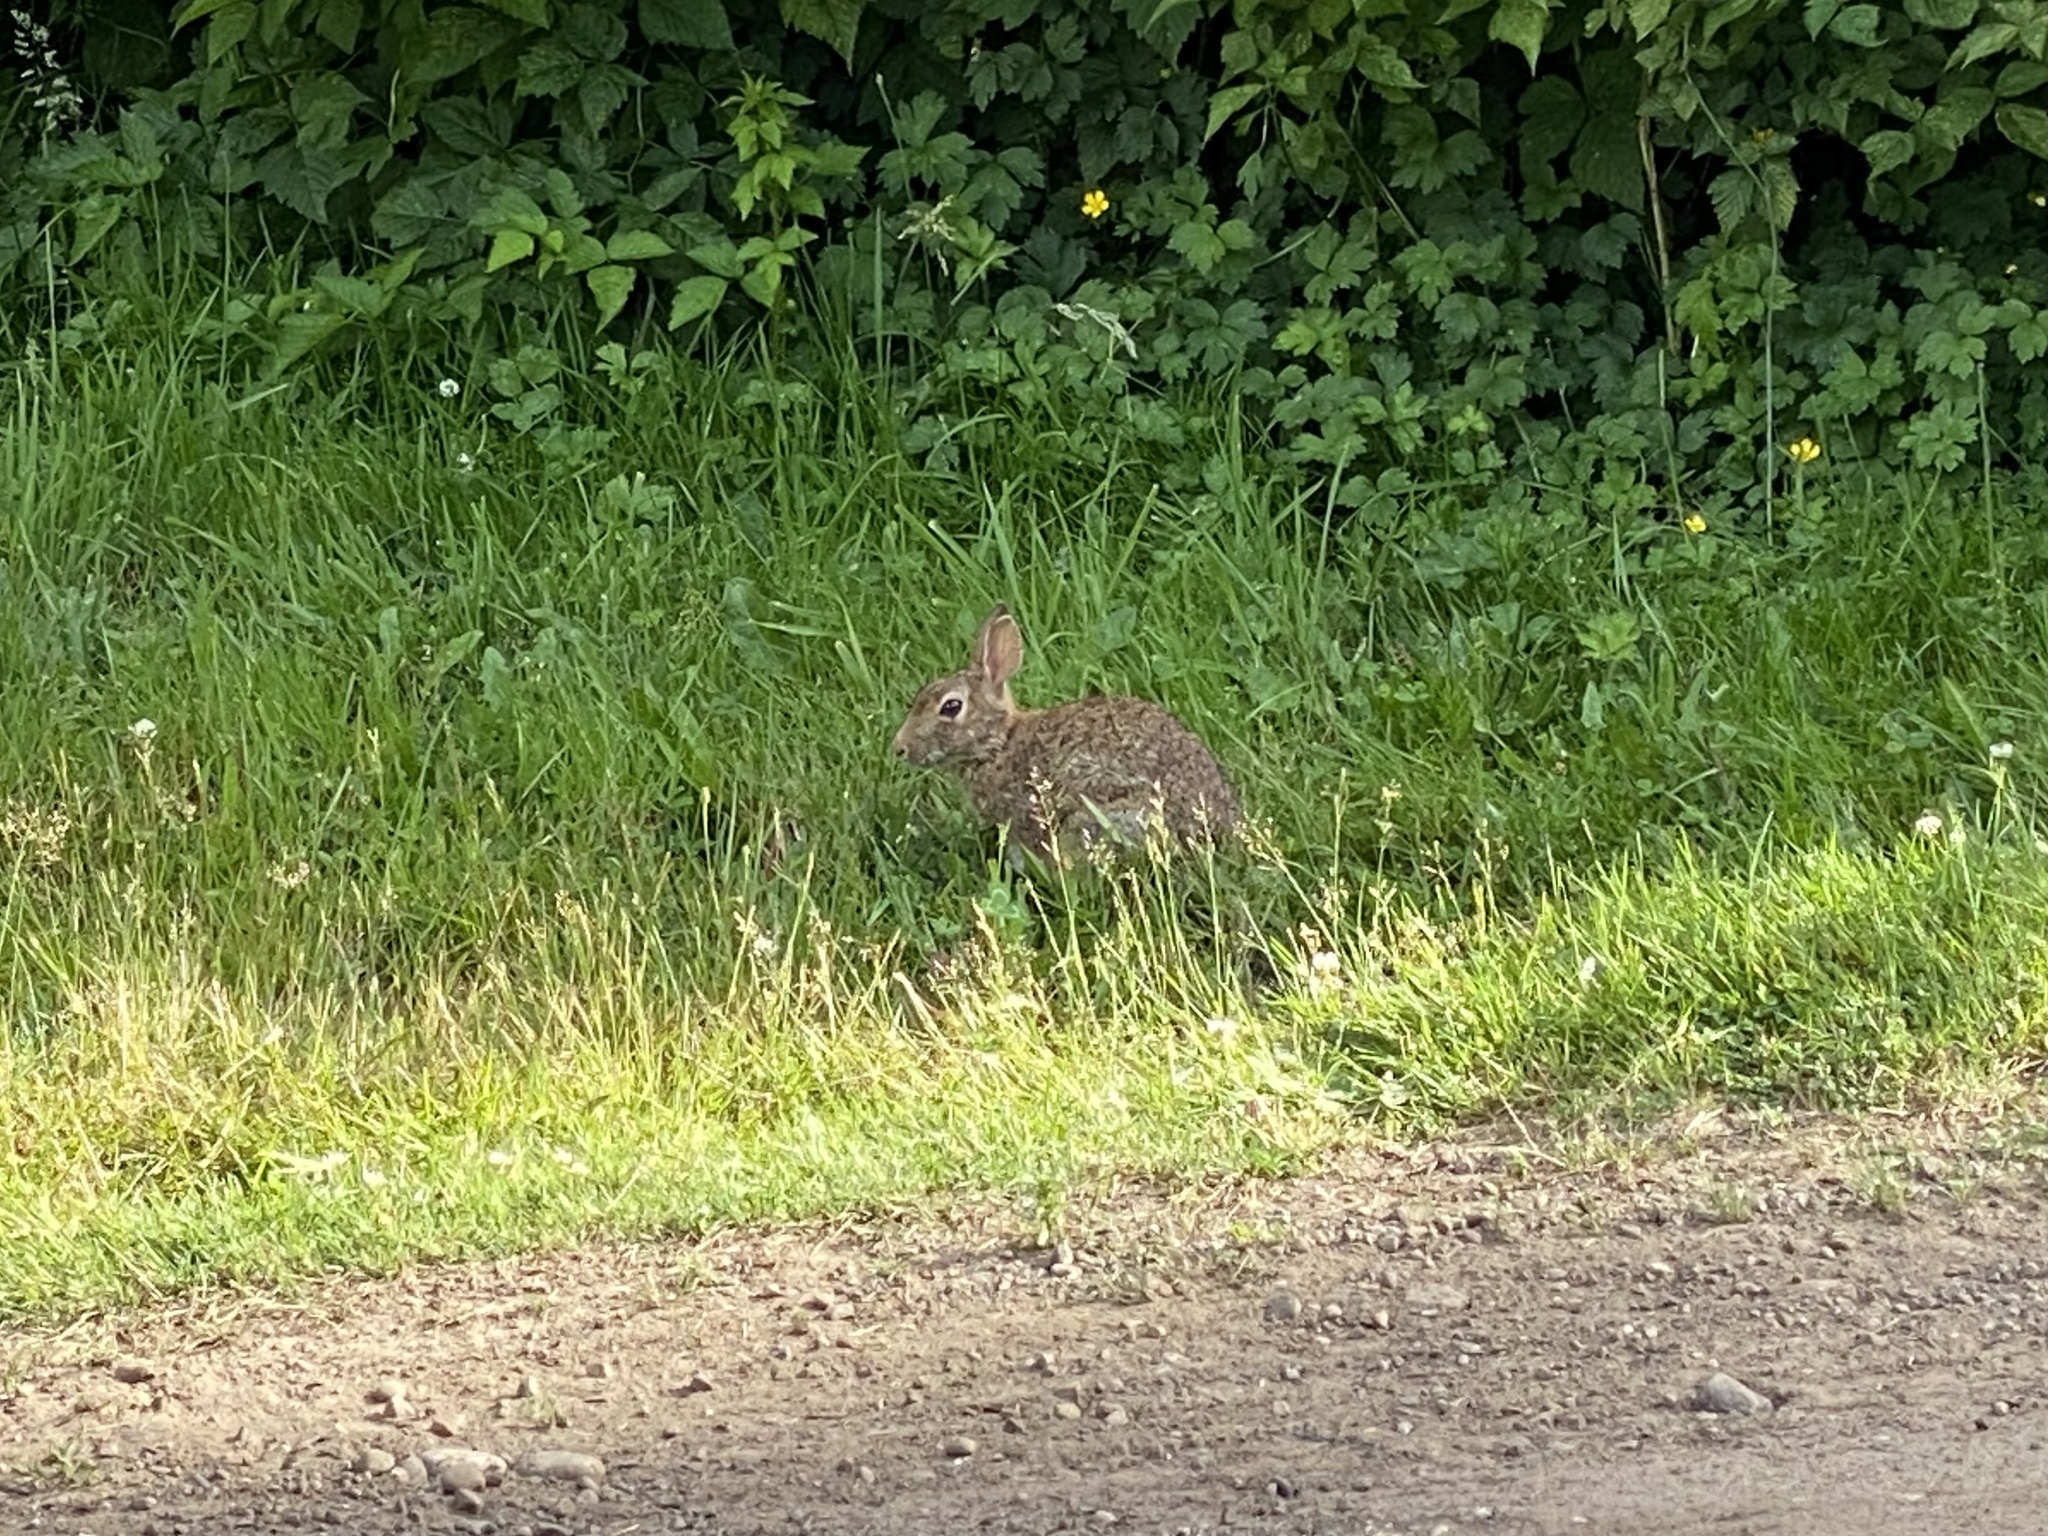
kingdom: Animalia
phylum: Chordata
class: Mammalia
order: Lagomorpha
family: Leporidae
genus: Sylvilagus
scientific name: Sylvilagus floridanus
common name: Eastern cottontail
